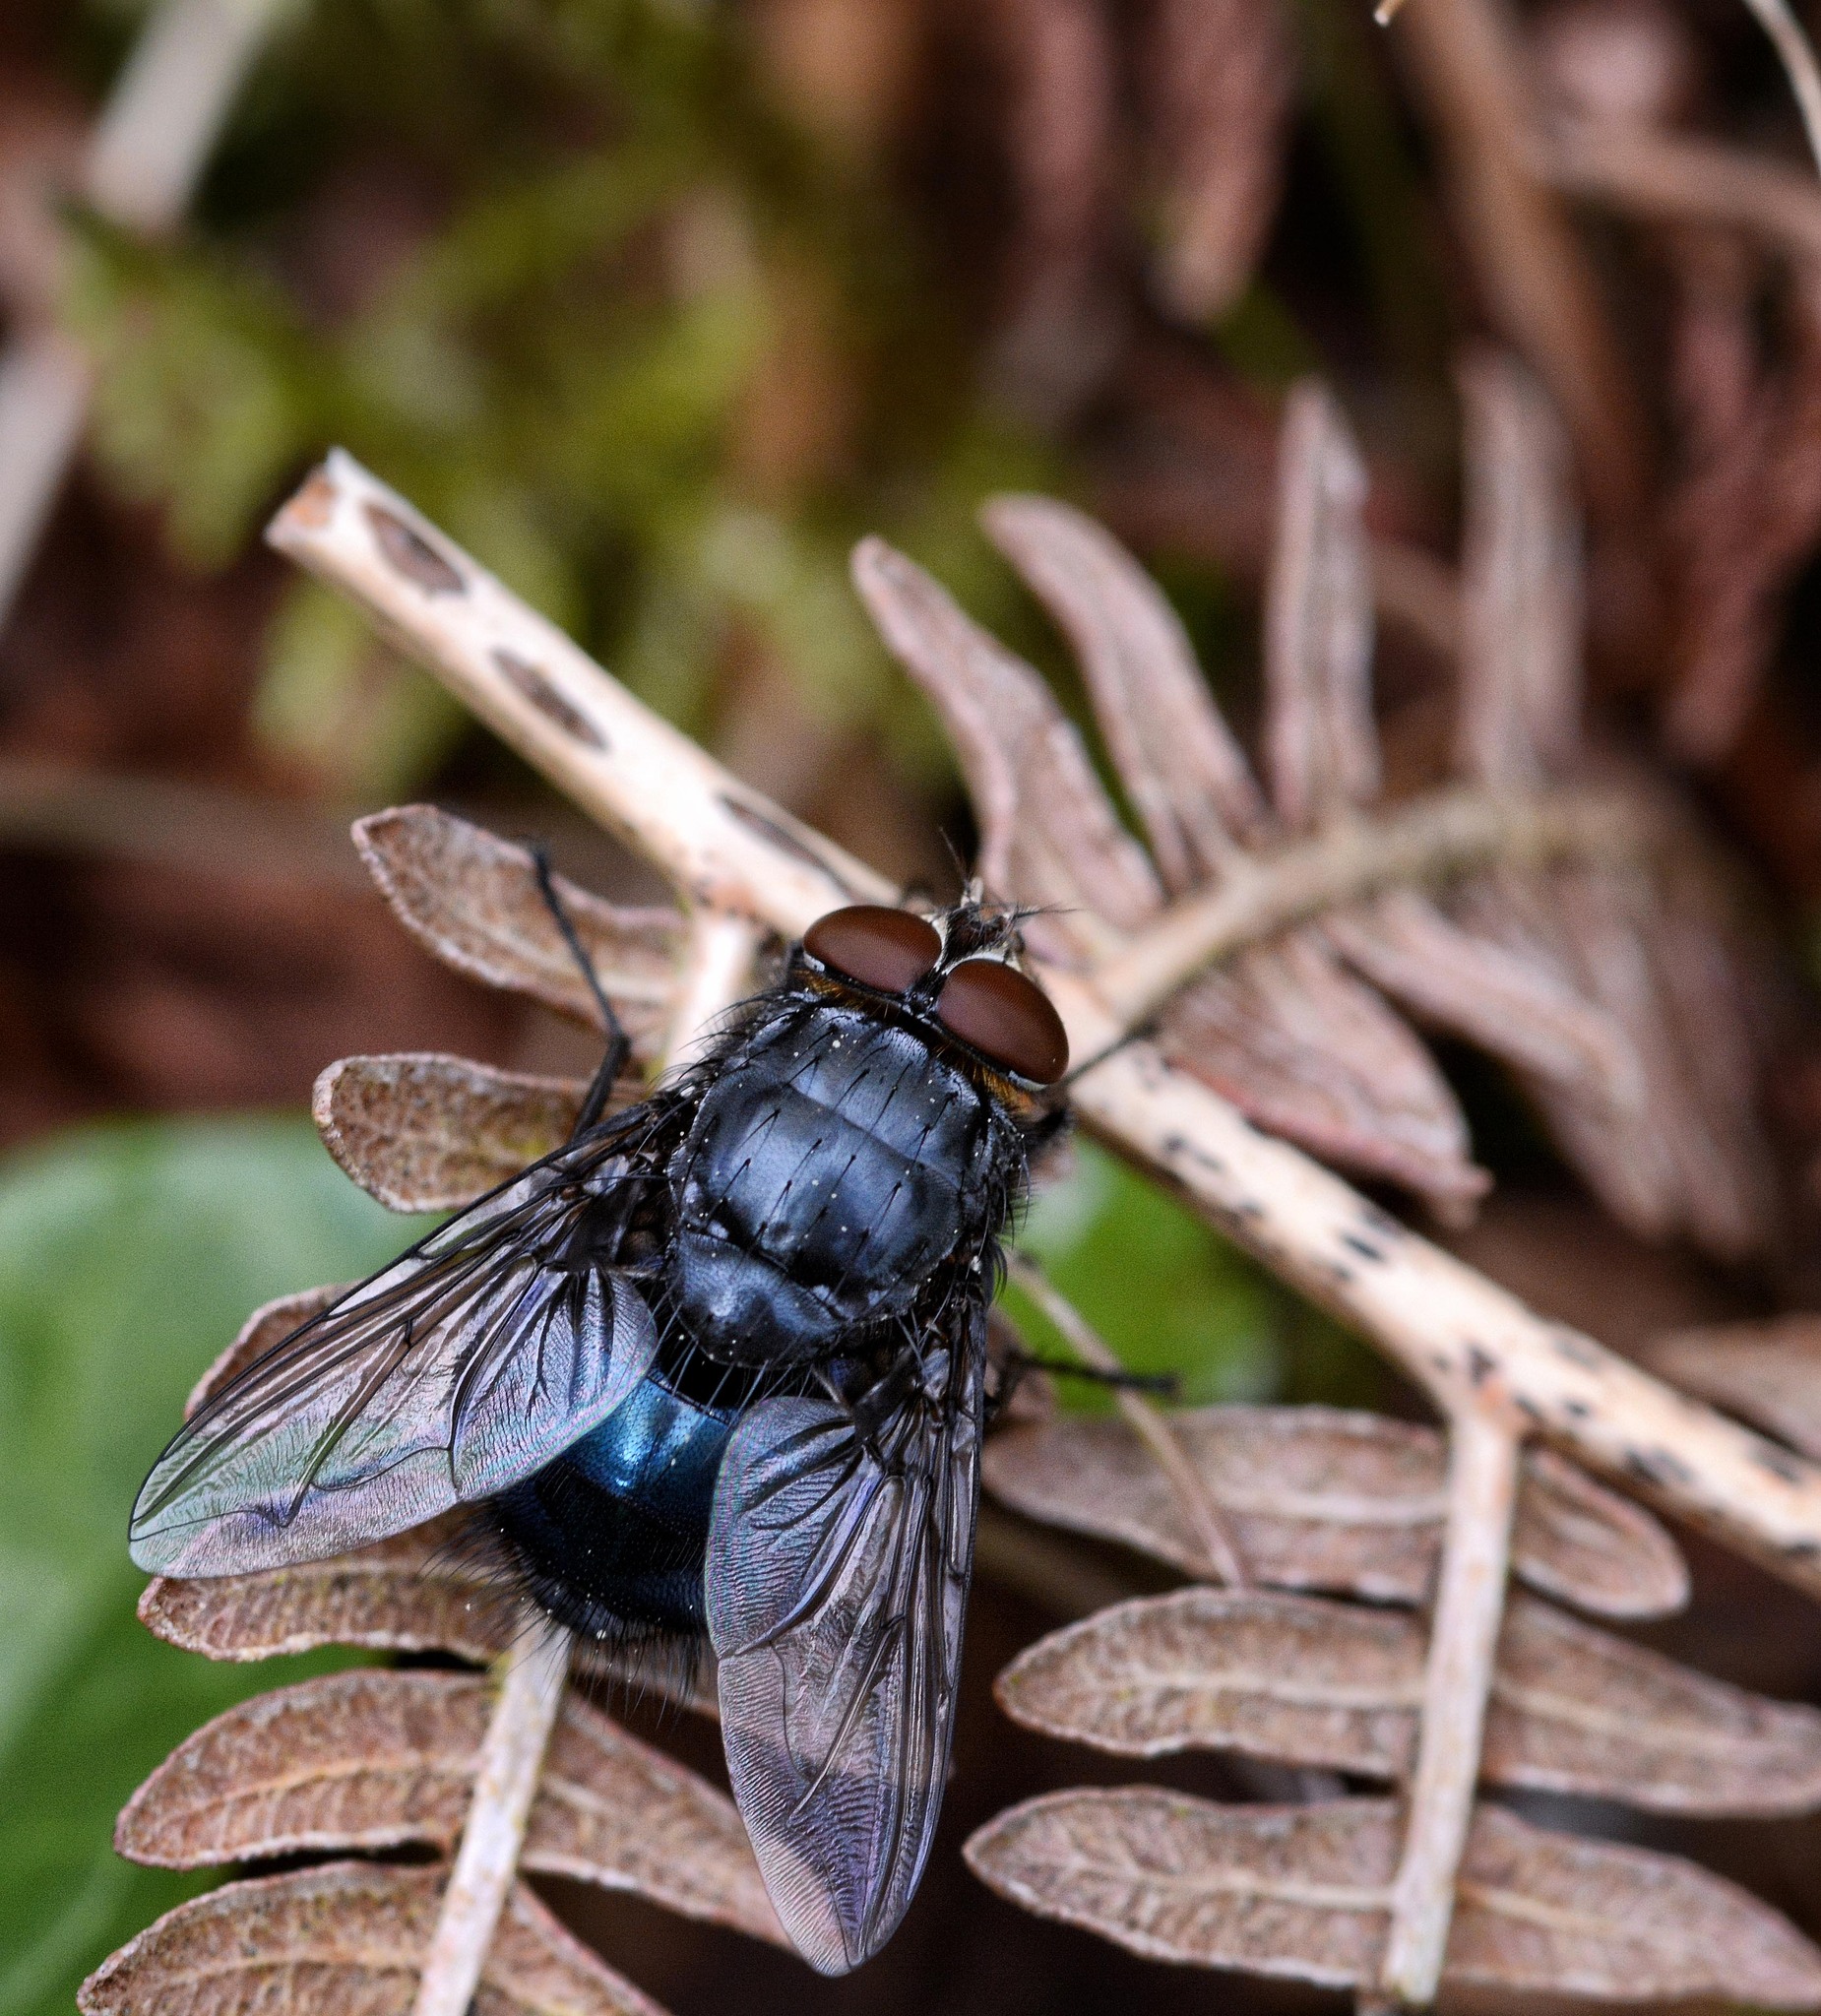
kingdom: Animalia
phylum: Arthropoda
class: Insecta
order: Diptera
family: Calliphoridae
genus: Calliphora
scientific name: Calliphora vomitoria
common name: Blue bottle fly
